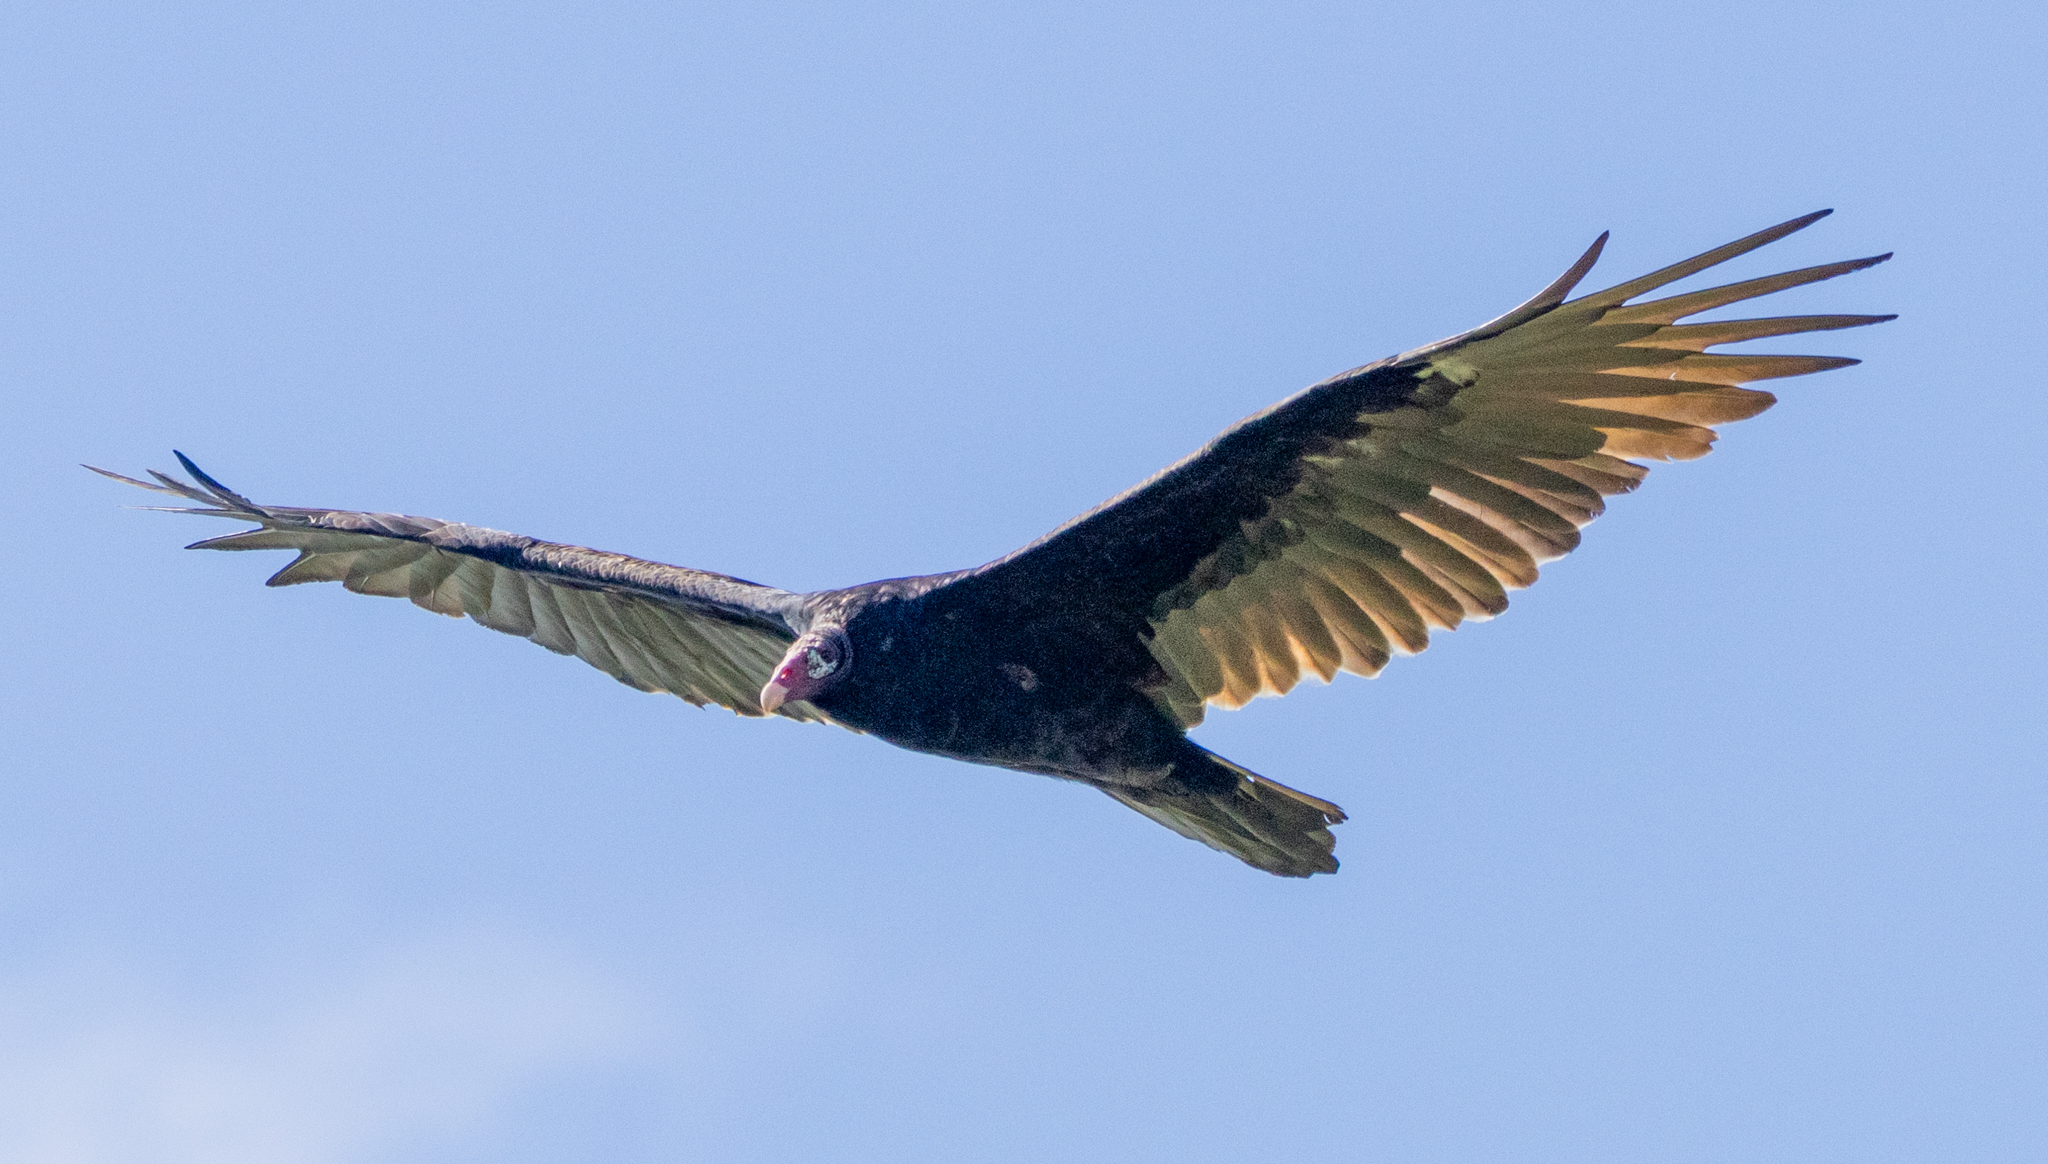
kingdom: Animalia
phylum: Chordata
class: Aves
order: Accipitriformes
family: Cathartidae
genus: Cathartes
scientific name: Cathartes aura
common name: Turkey vulture
